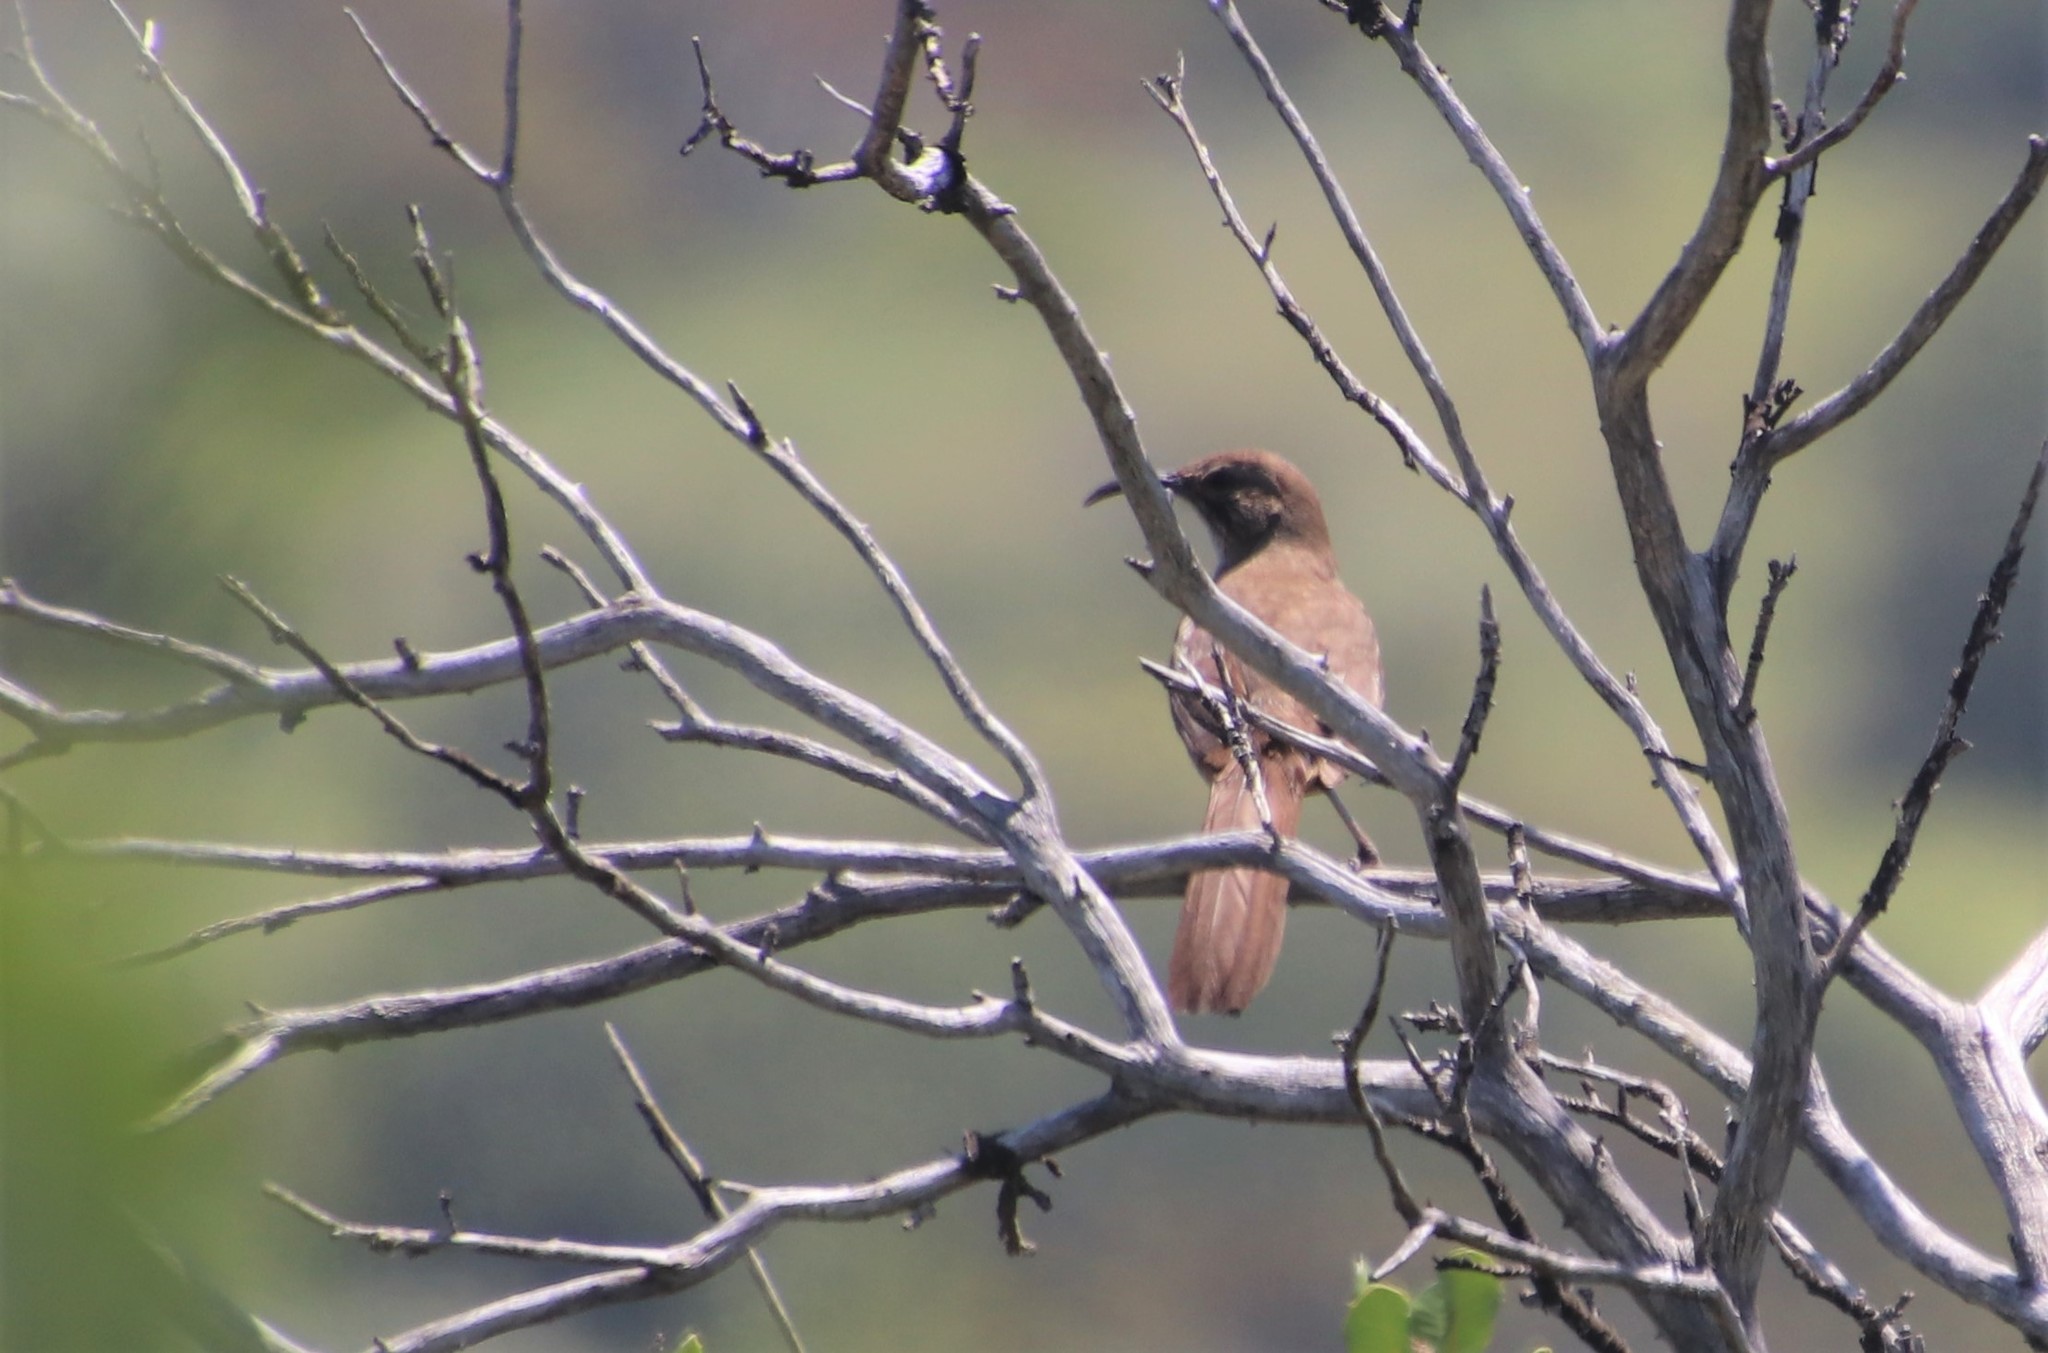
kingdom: Animalia
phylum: Chordata
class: Aves
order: Passeriformes
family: Mimidae
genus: Toxostoma
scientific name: Toxostoma redivivum
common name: California thrasher
